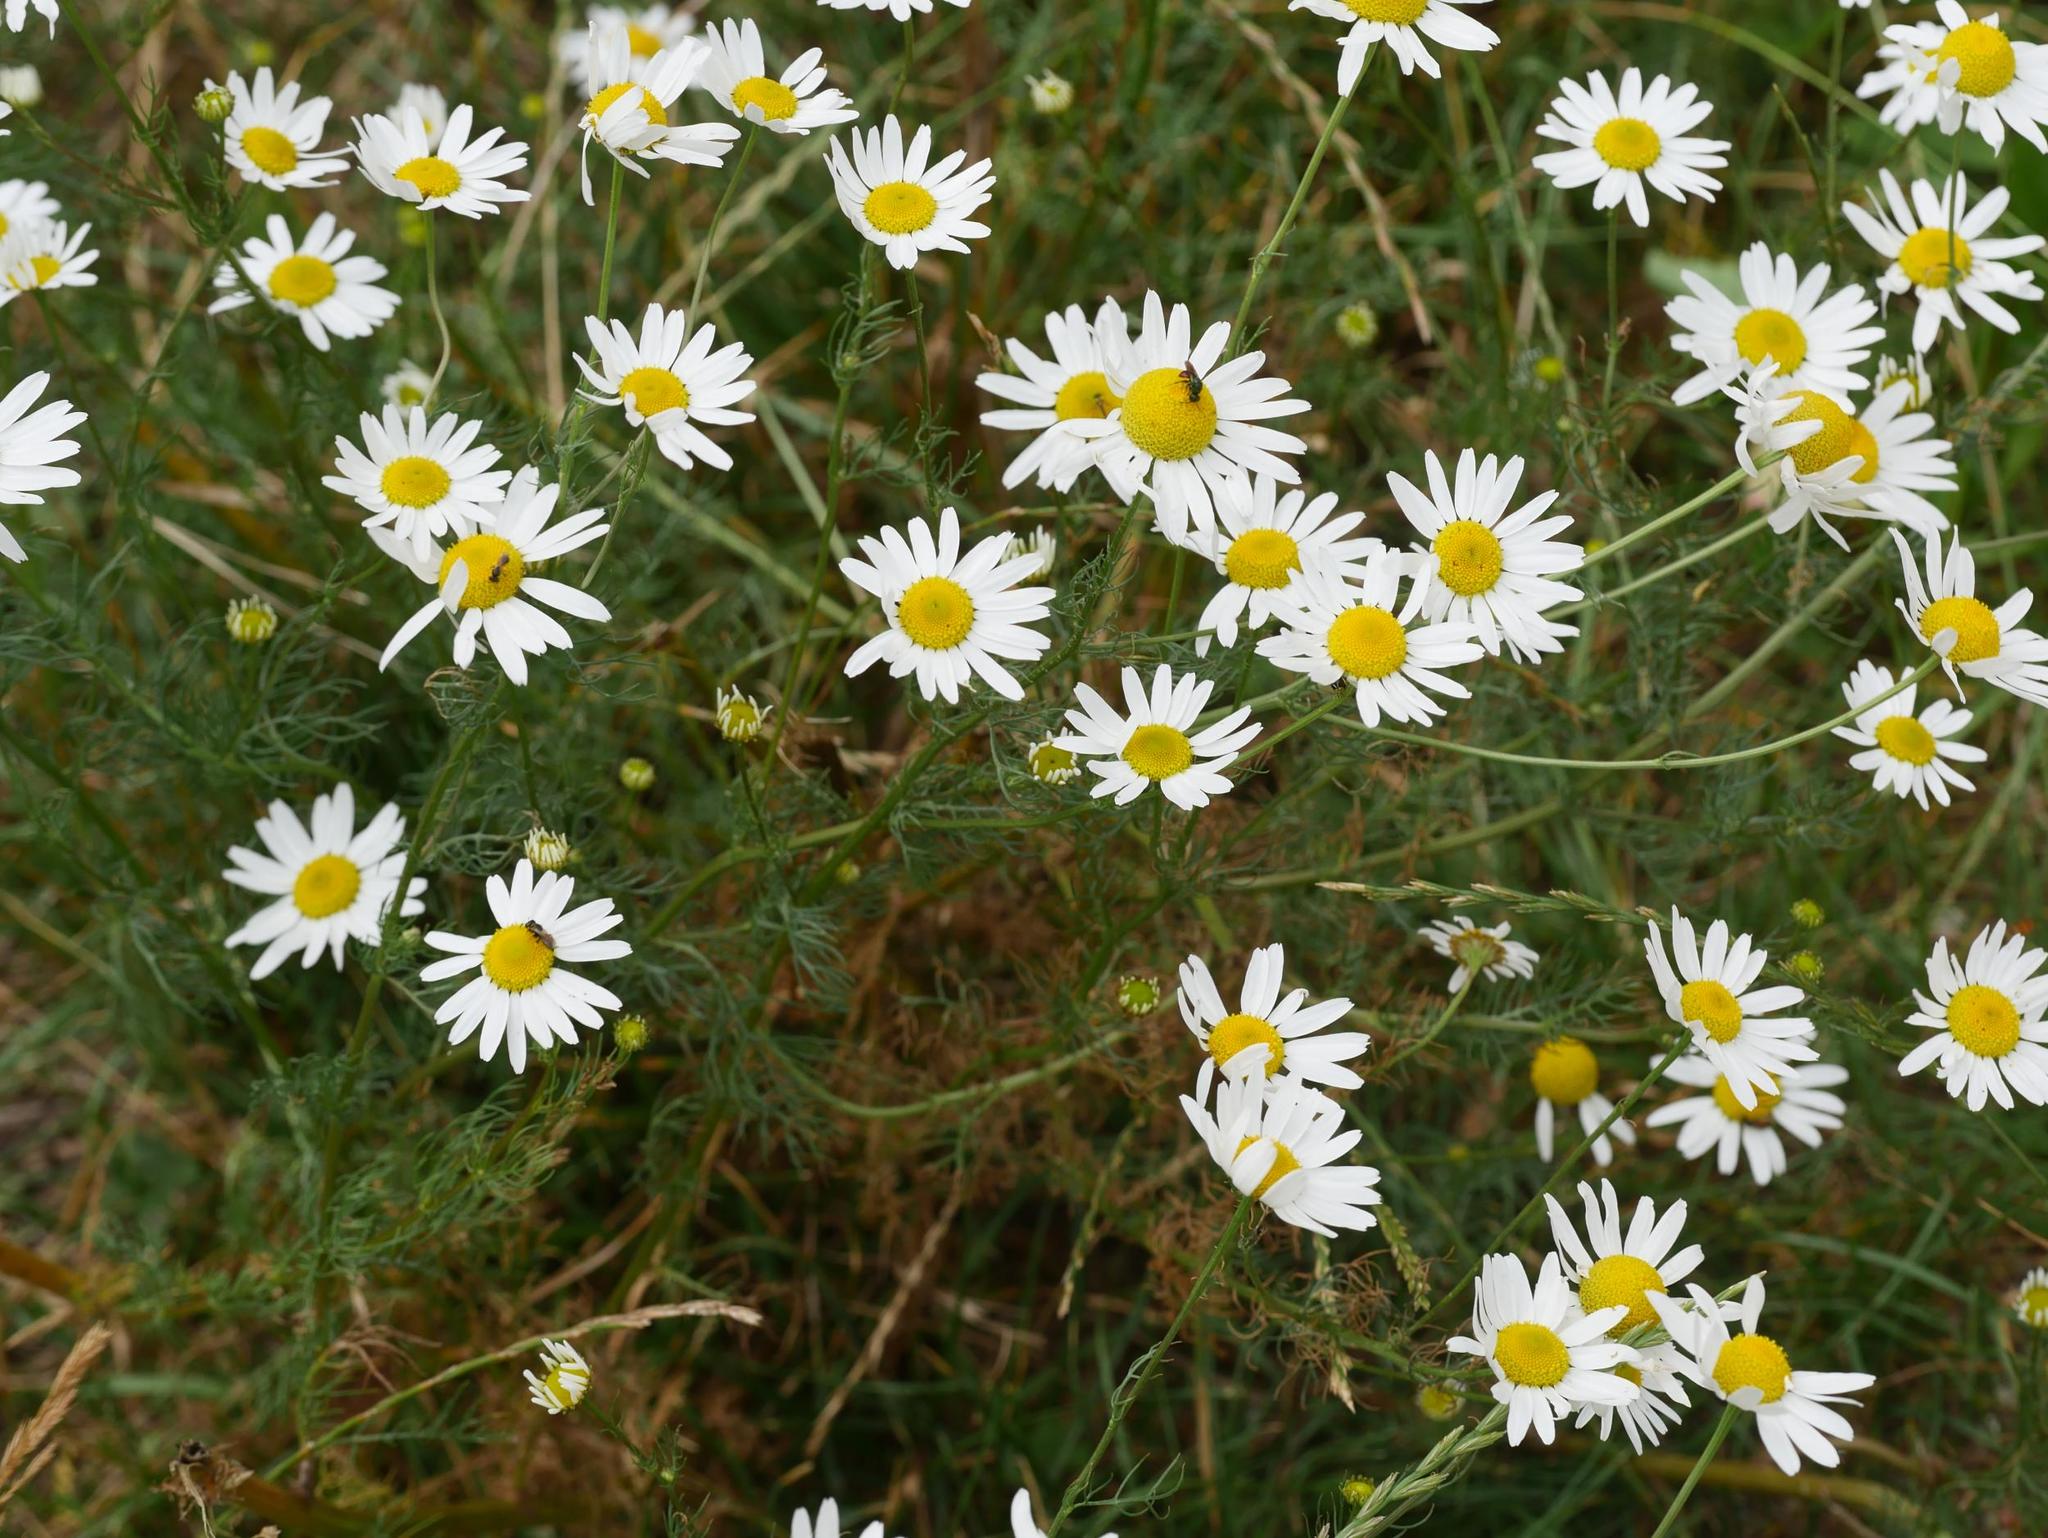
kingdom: Plantae
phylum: Tracheophyta
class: Magnoliopsida
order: Asterales
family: Asteraceae
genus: Tripleurospermum
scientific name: Tripleurospermum inodorum
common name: Scentless mayweed
